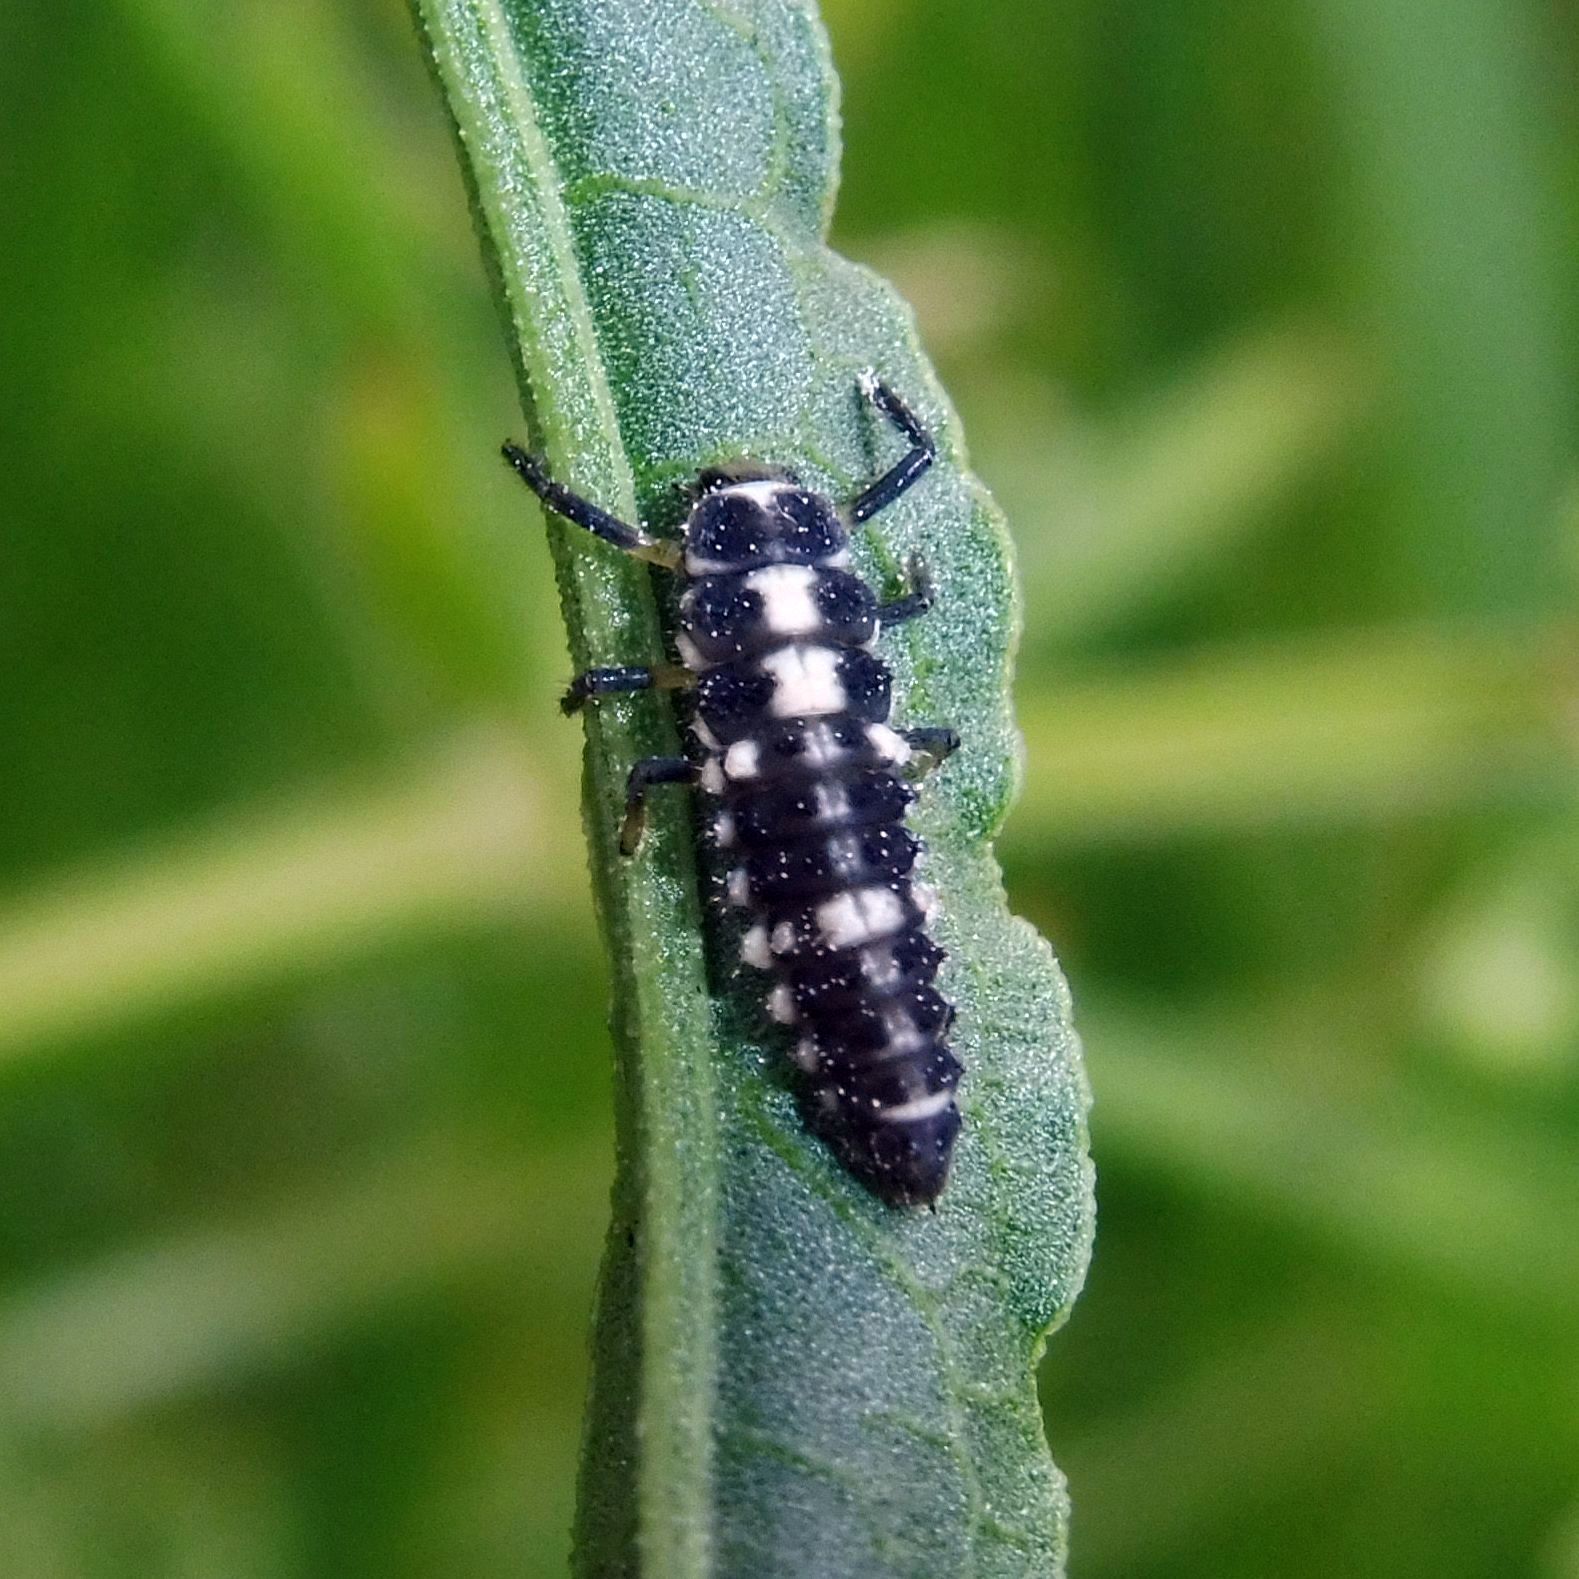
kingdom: Animalia
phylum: Arthropoda
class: Insecta
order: Coleoptera
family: Coccinellidae
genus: Propylaea
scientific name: Propylaea quatuordecimpunctata
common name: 14-spotted ladybird beetle
